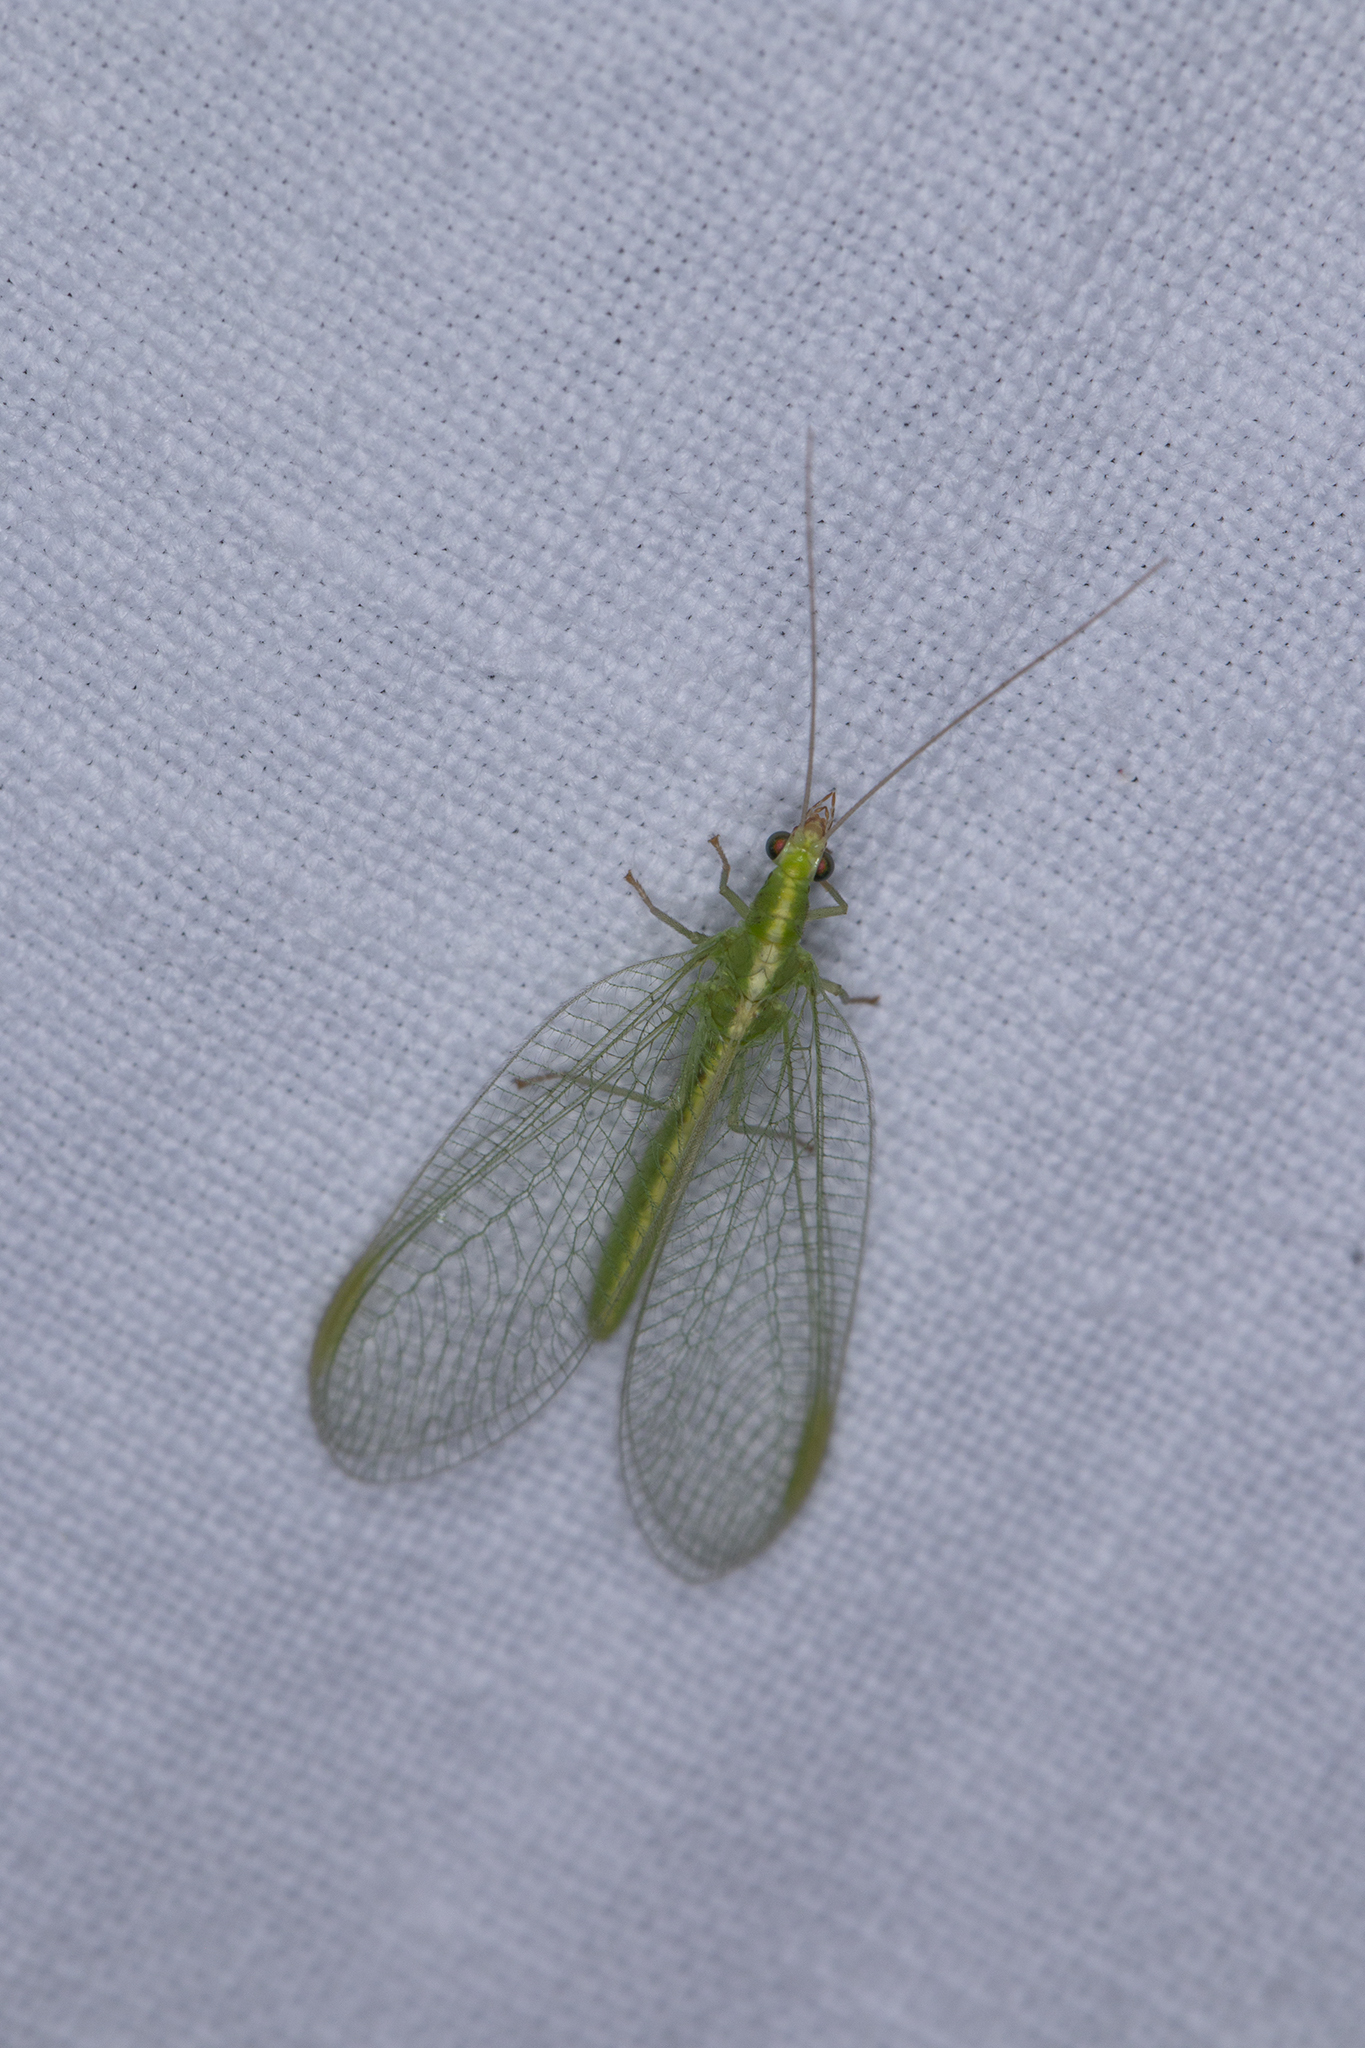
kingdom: Animalia
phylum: Arthropoda
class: Insecta
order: Neuroptera
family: Chrysopidae
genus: Chrysoperla
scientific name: Chrysoperla
